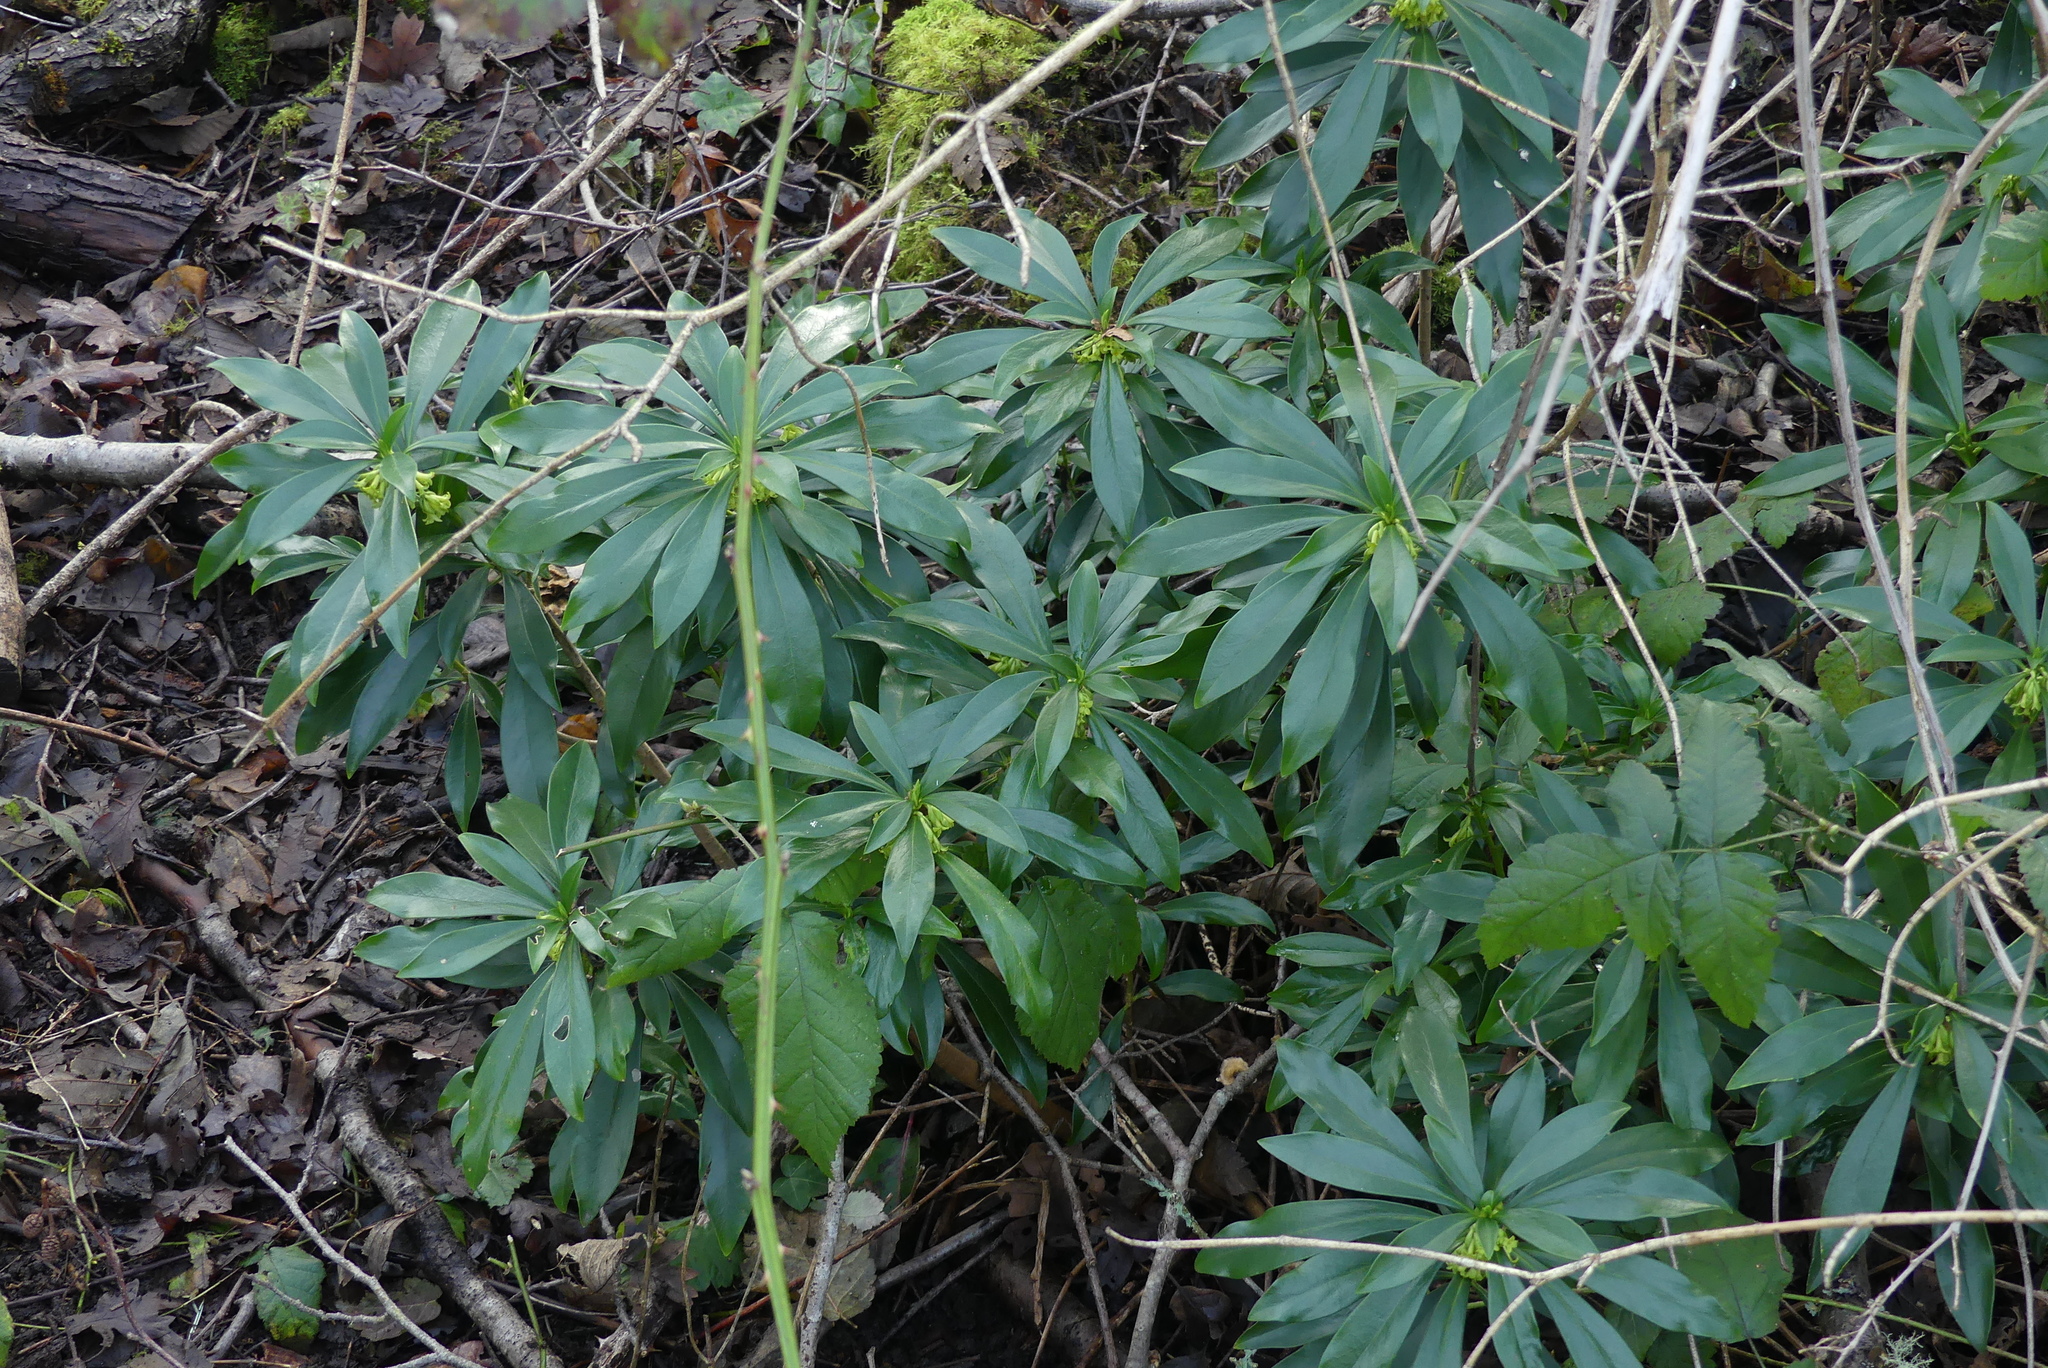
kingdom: Plantae
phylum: Tracheophyta
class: Magnoliopsida
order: Malvales
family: Thymelaeaceae
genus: Daphne
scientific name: Daphne laureola
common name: Spurge-laurel
